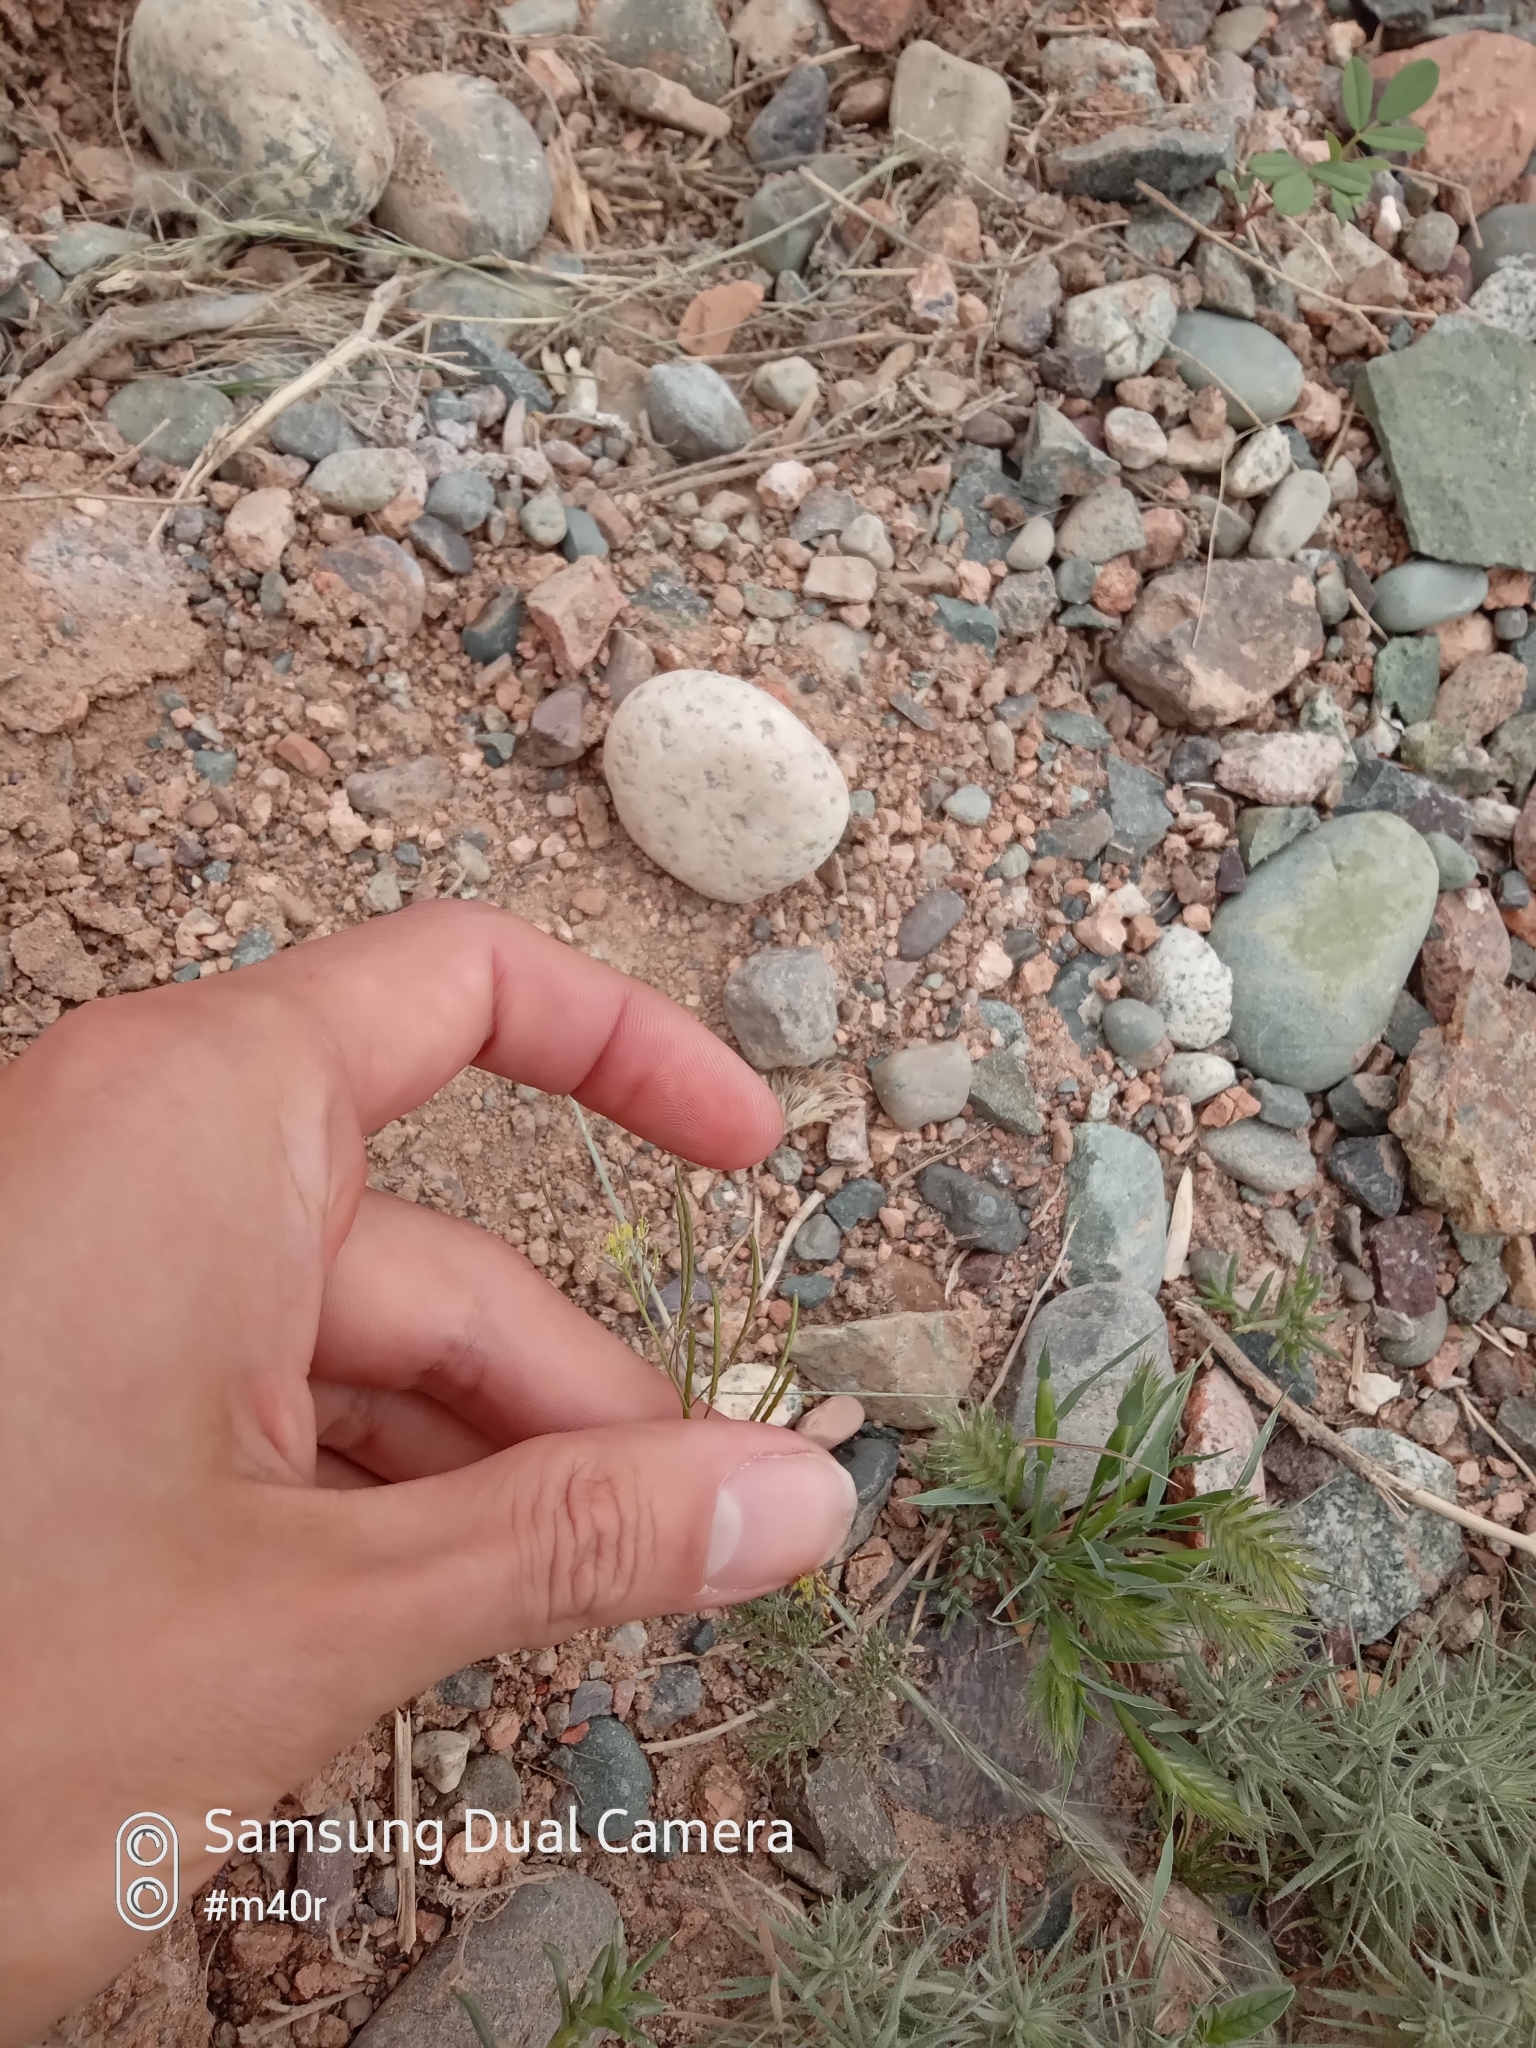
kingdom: Plantae
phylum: Tracheophyta
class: Magnoliopsida
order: Brassicales
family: Brassicaceae
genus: Descurainia
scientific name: Descurainia sophia
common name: Flixweed
